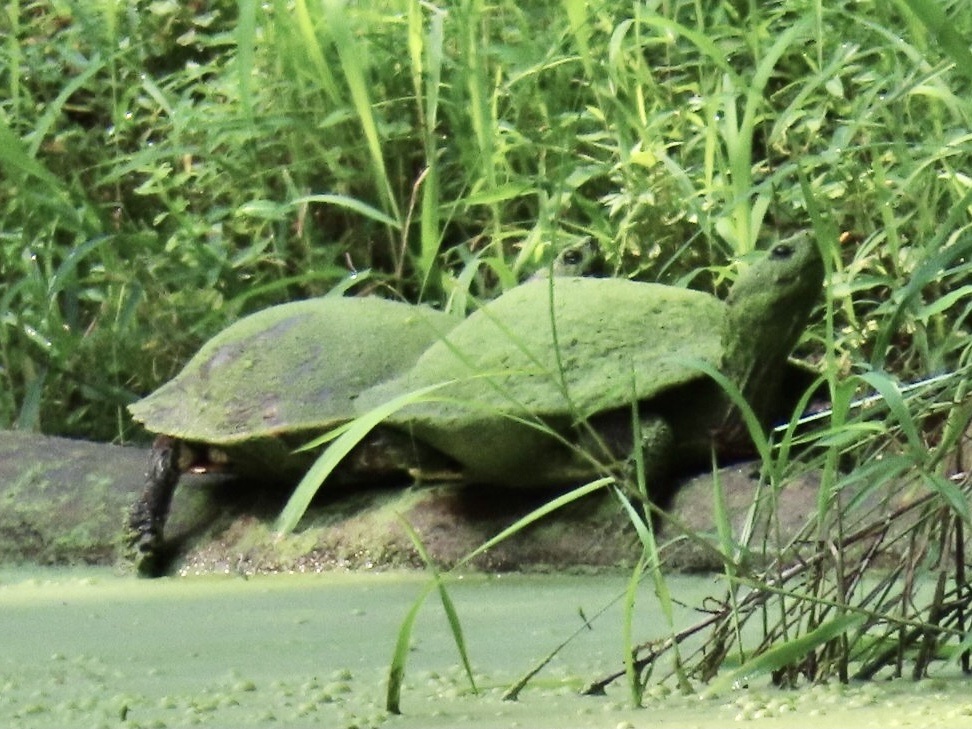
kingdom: Animalia
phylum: Chordata
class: Testudines
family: Emydidae
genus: Trachemys
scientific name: Trachemys scripta
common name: Slider
